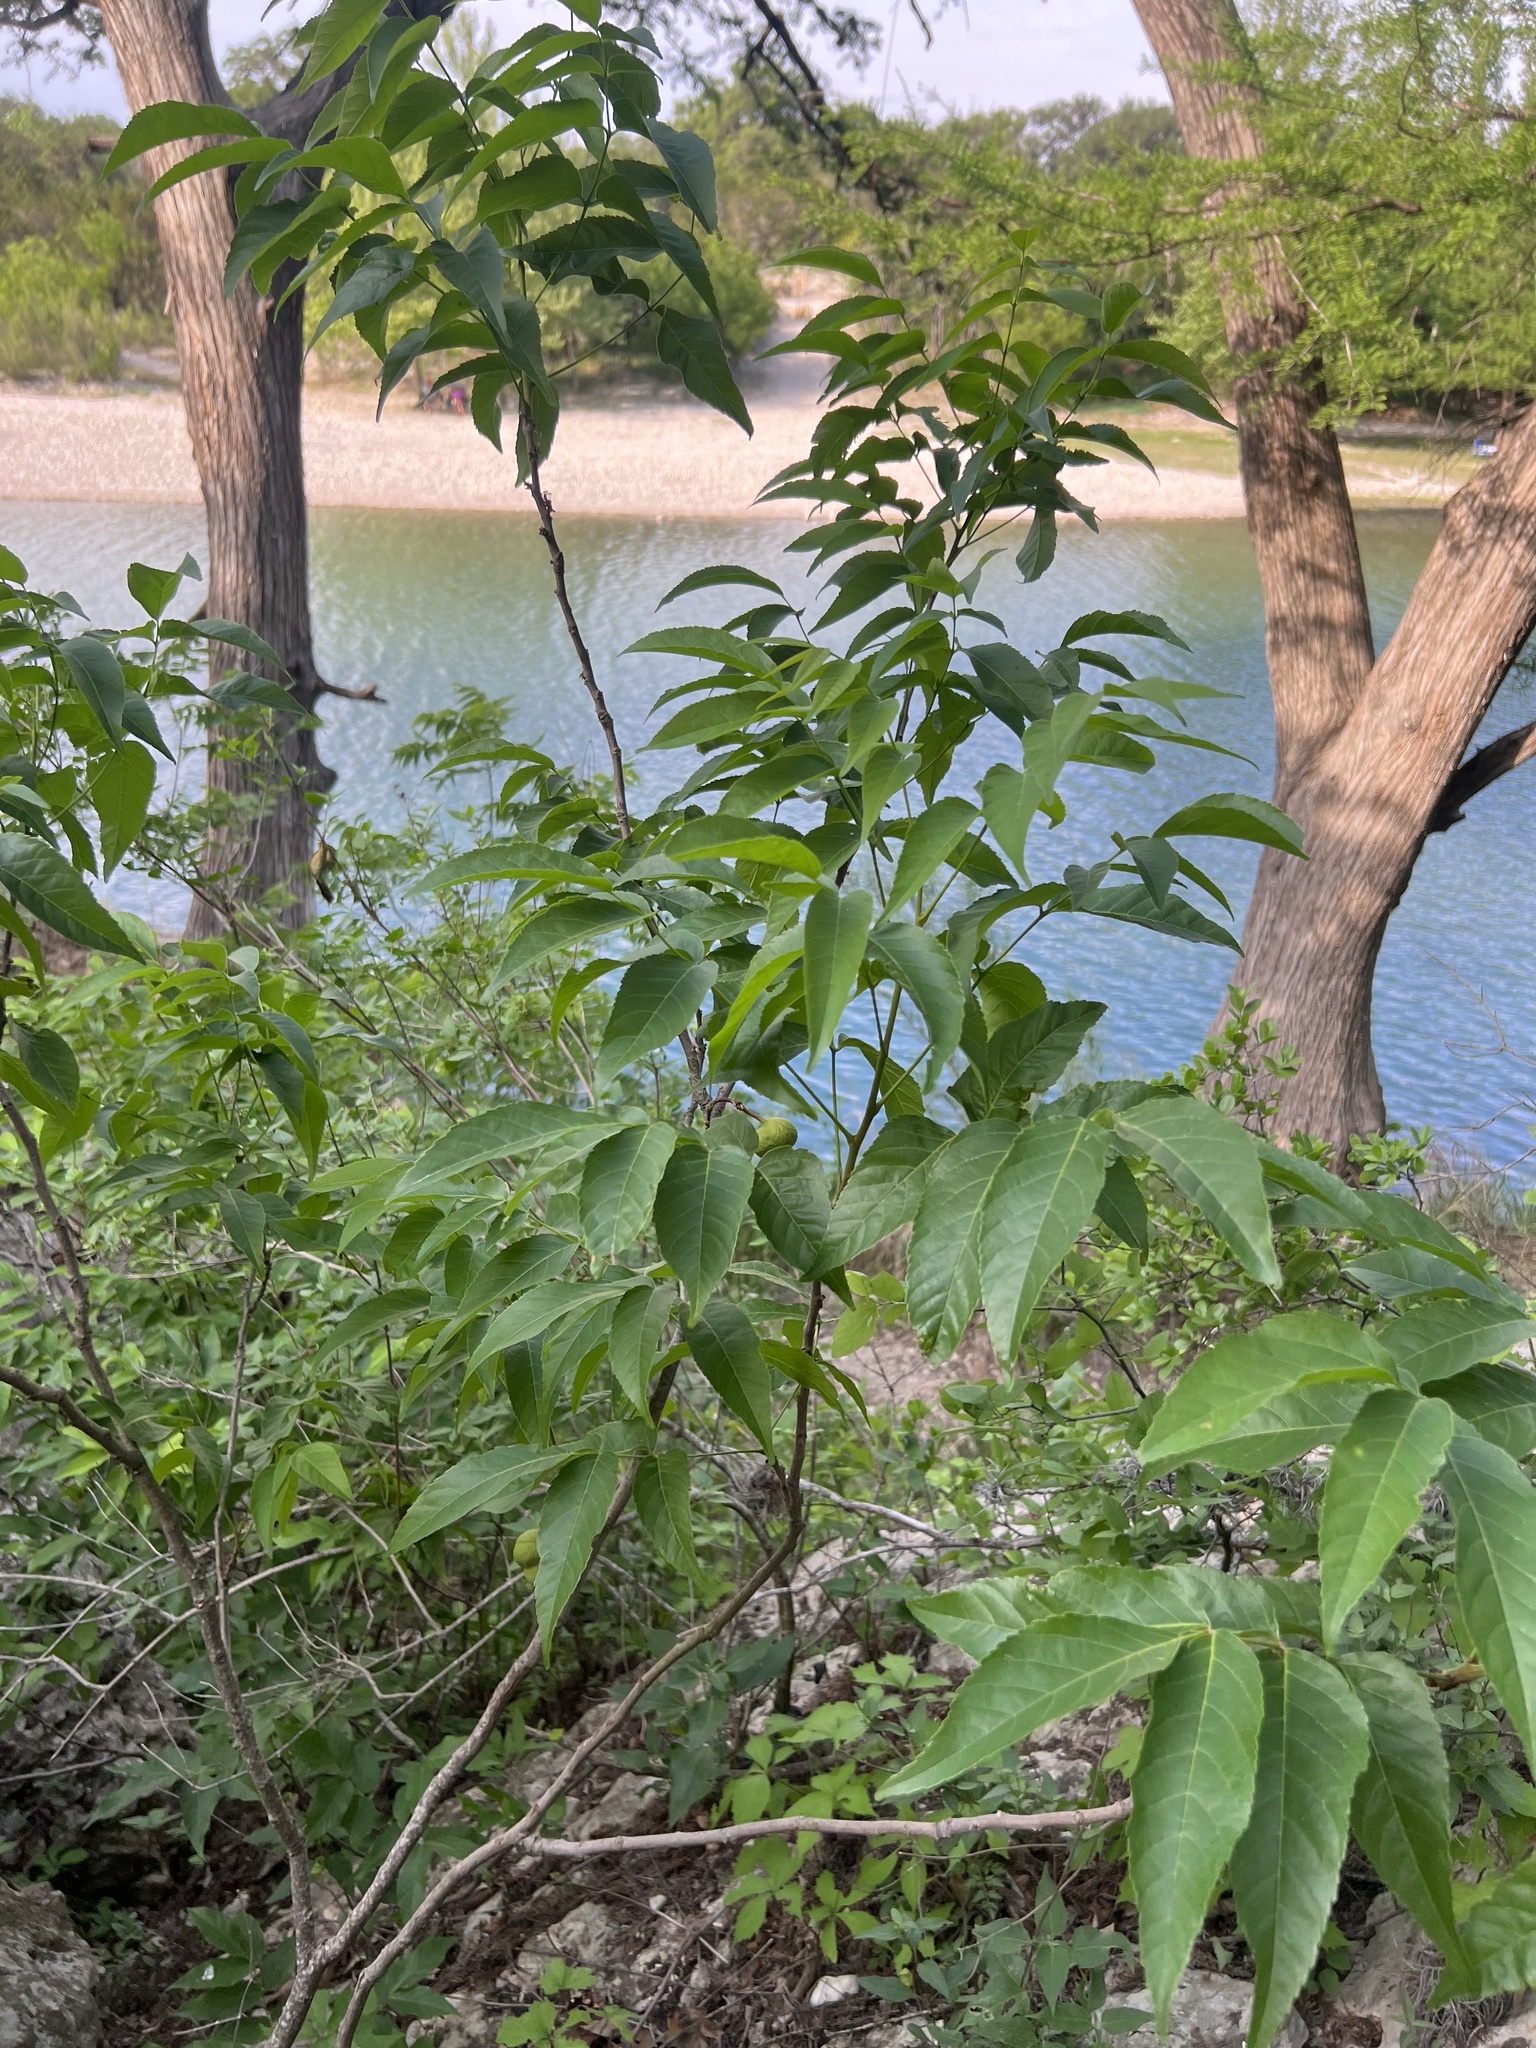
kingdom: Plantae
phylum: Tracheophyta
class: Magnoliopsida
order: Sapindales
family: Sapindaceae
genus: Ungnadia
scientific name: Ungnadia speciosa
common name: Texas-buckeye
